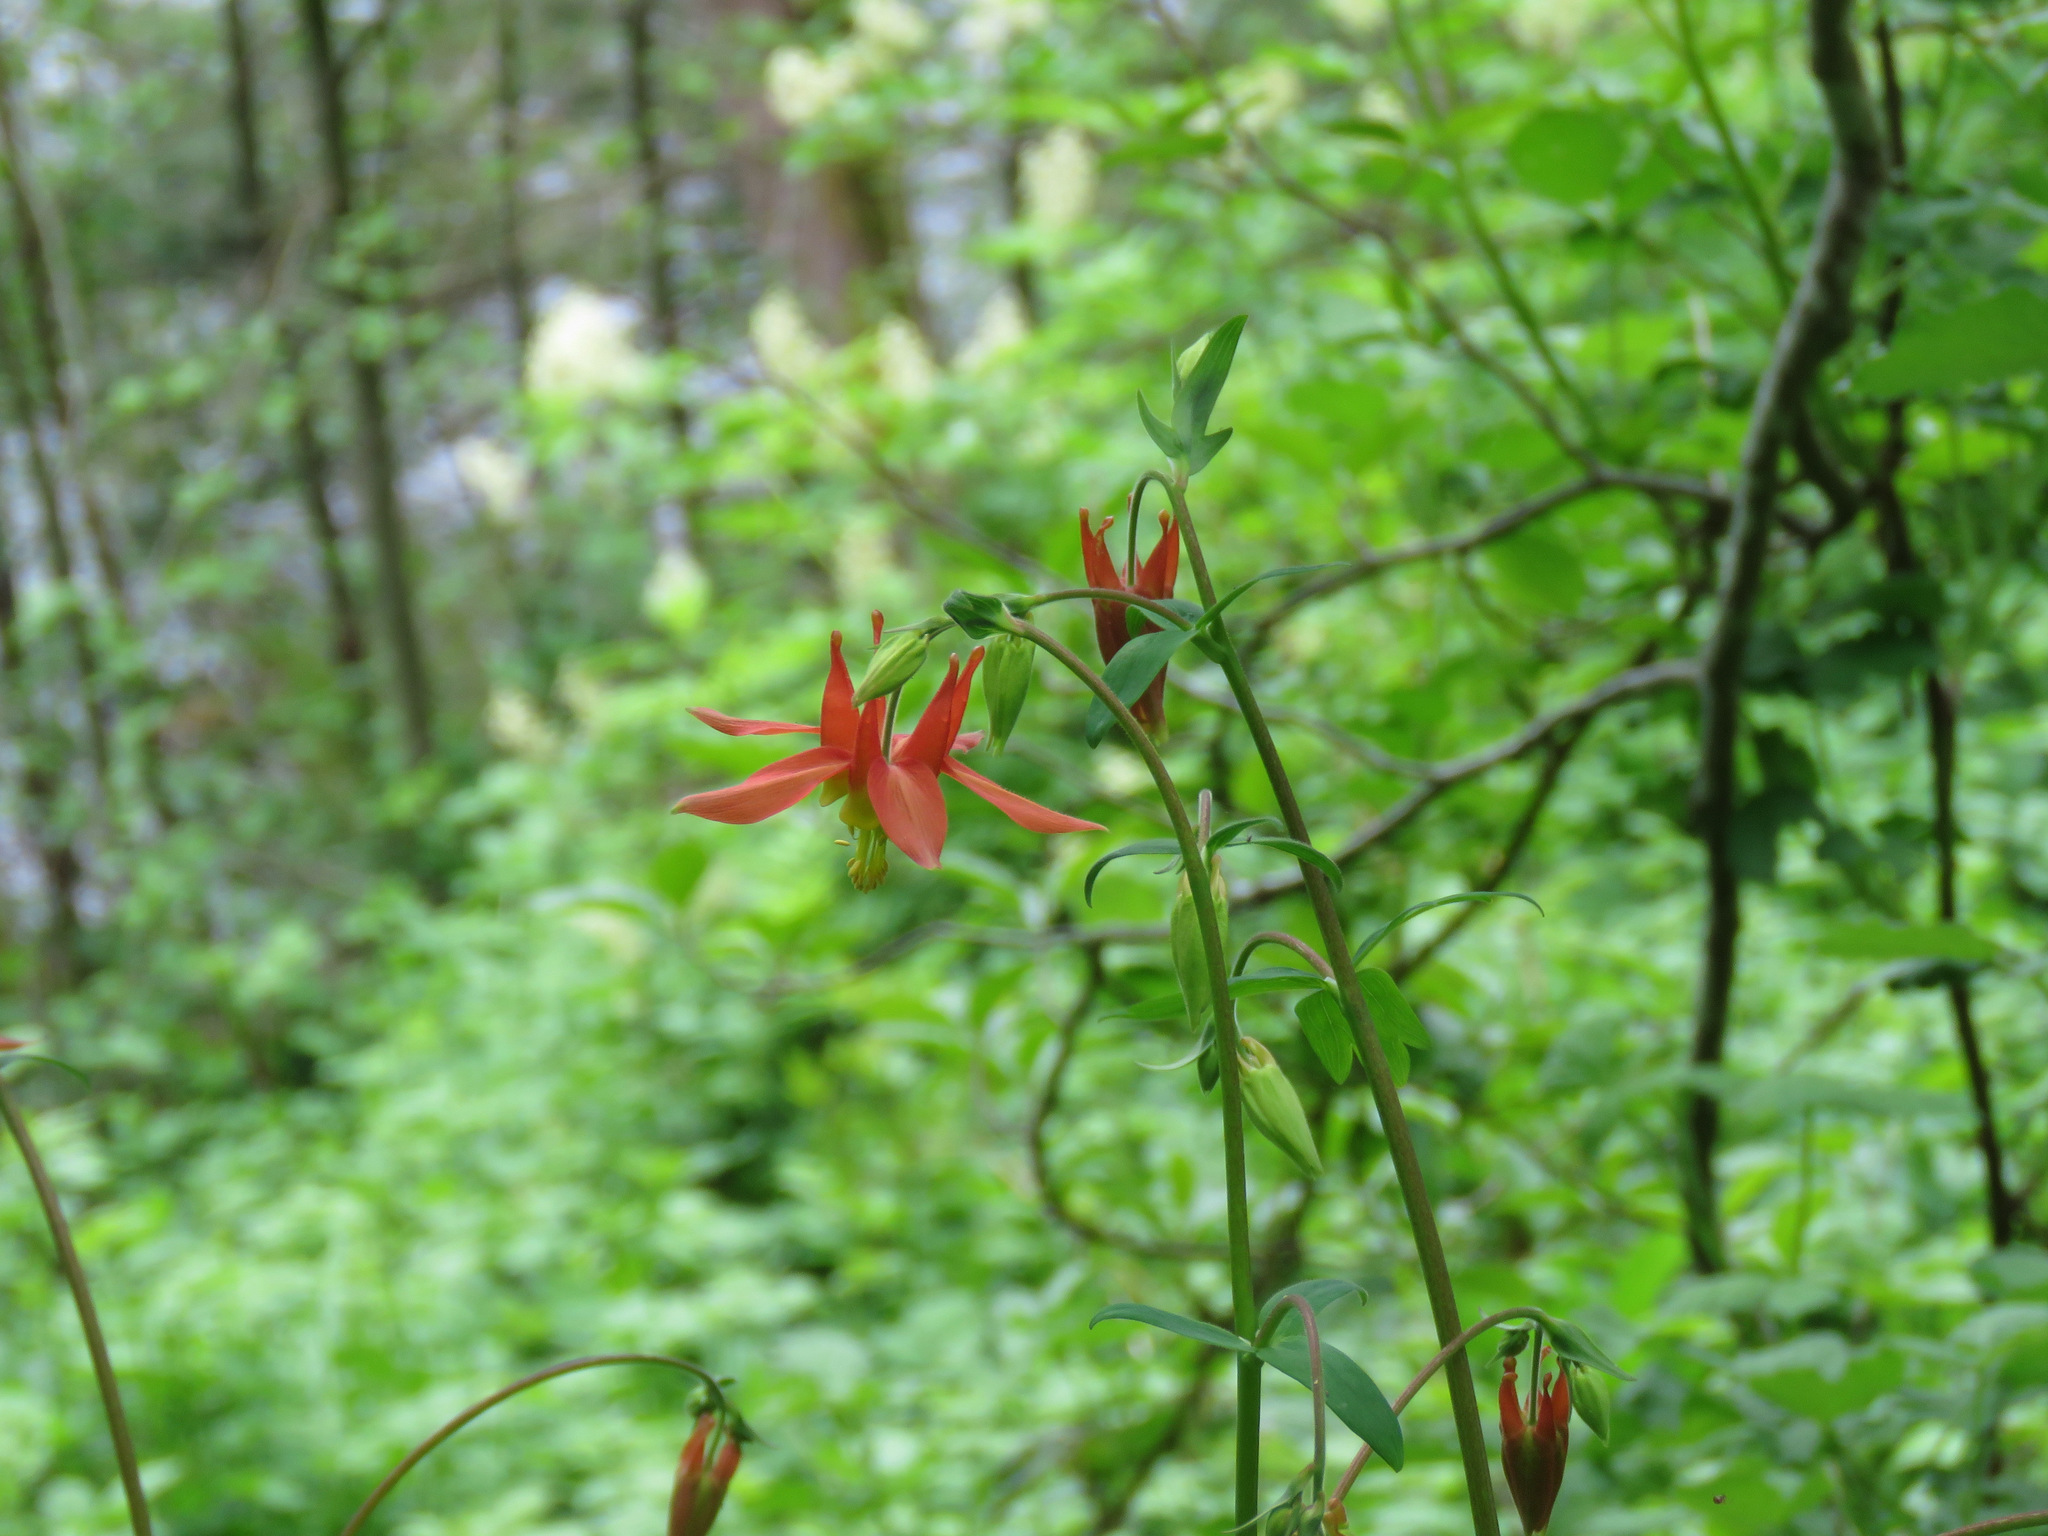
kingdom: Plantae
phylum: Tracheophyta
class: Magnoliopsida
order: Ranunculales
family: Ranunculaceae
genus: Aquilegia
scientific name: Aquilegia formosa
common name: Sitka columbine
